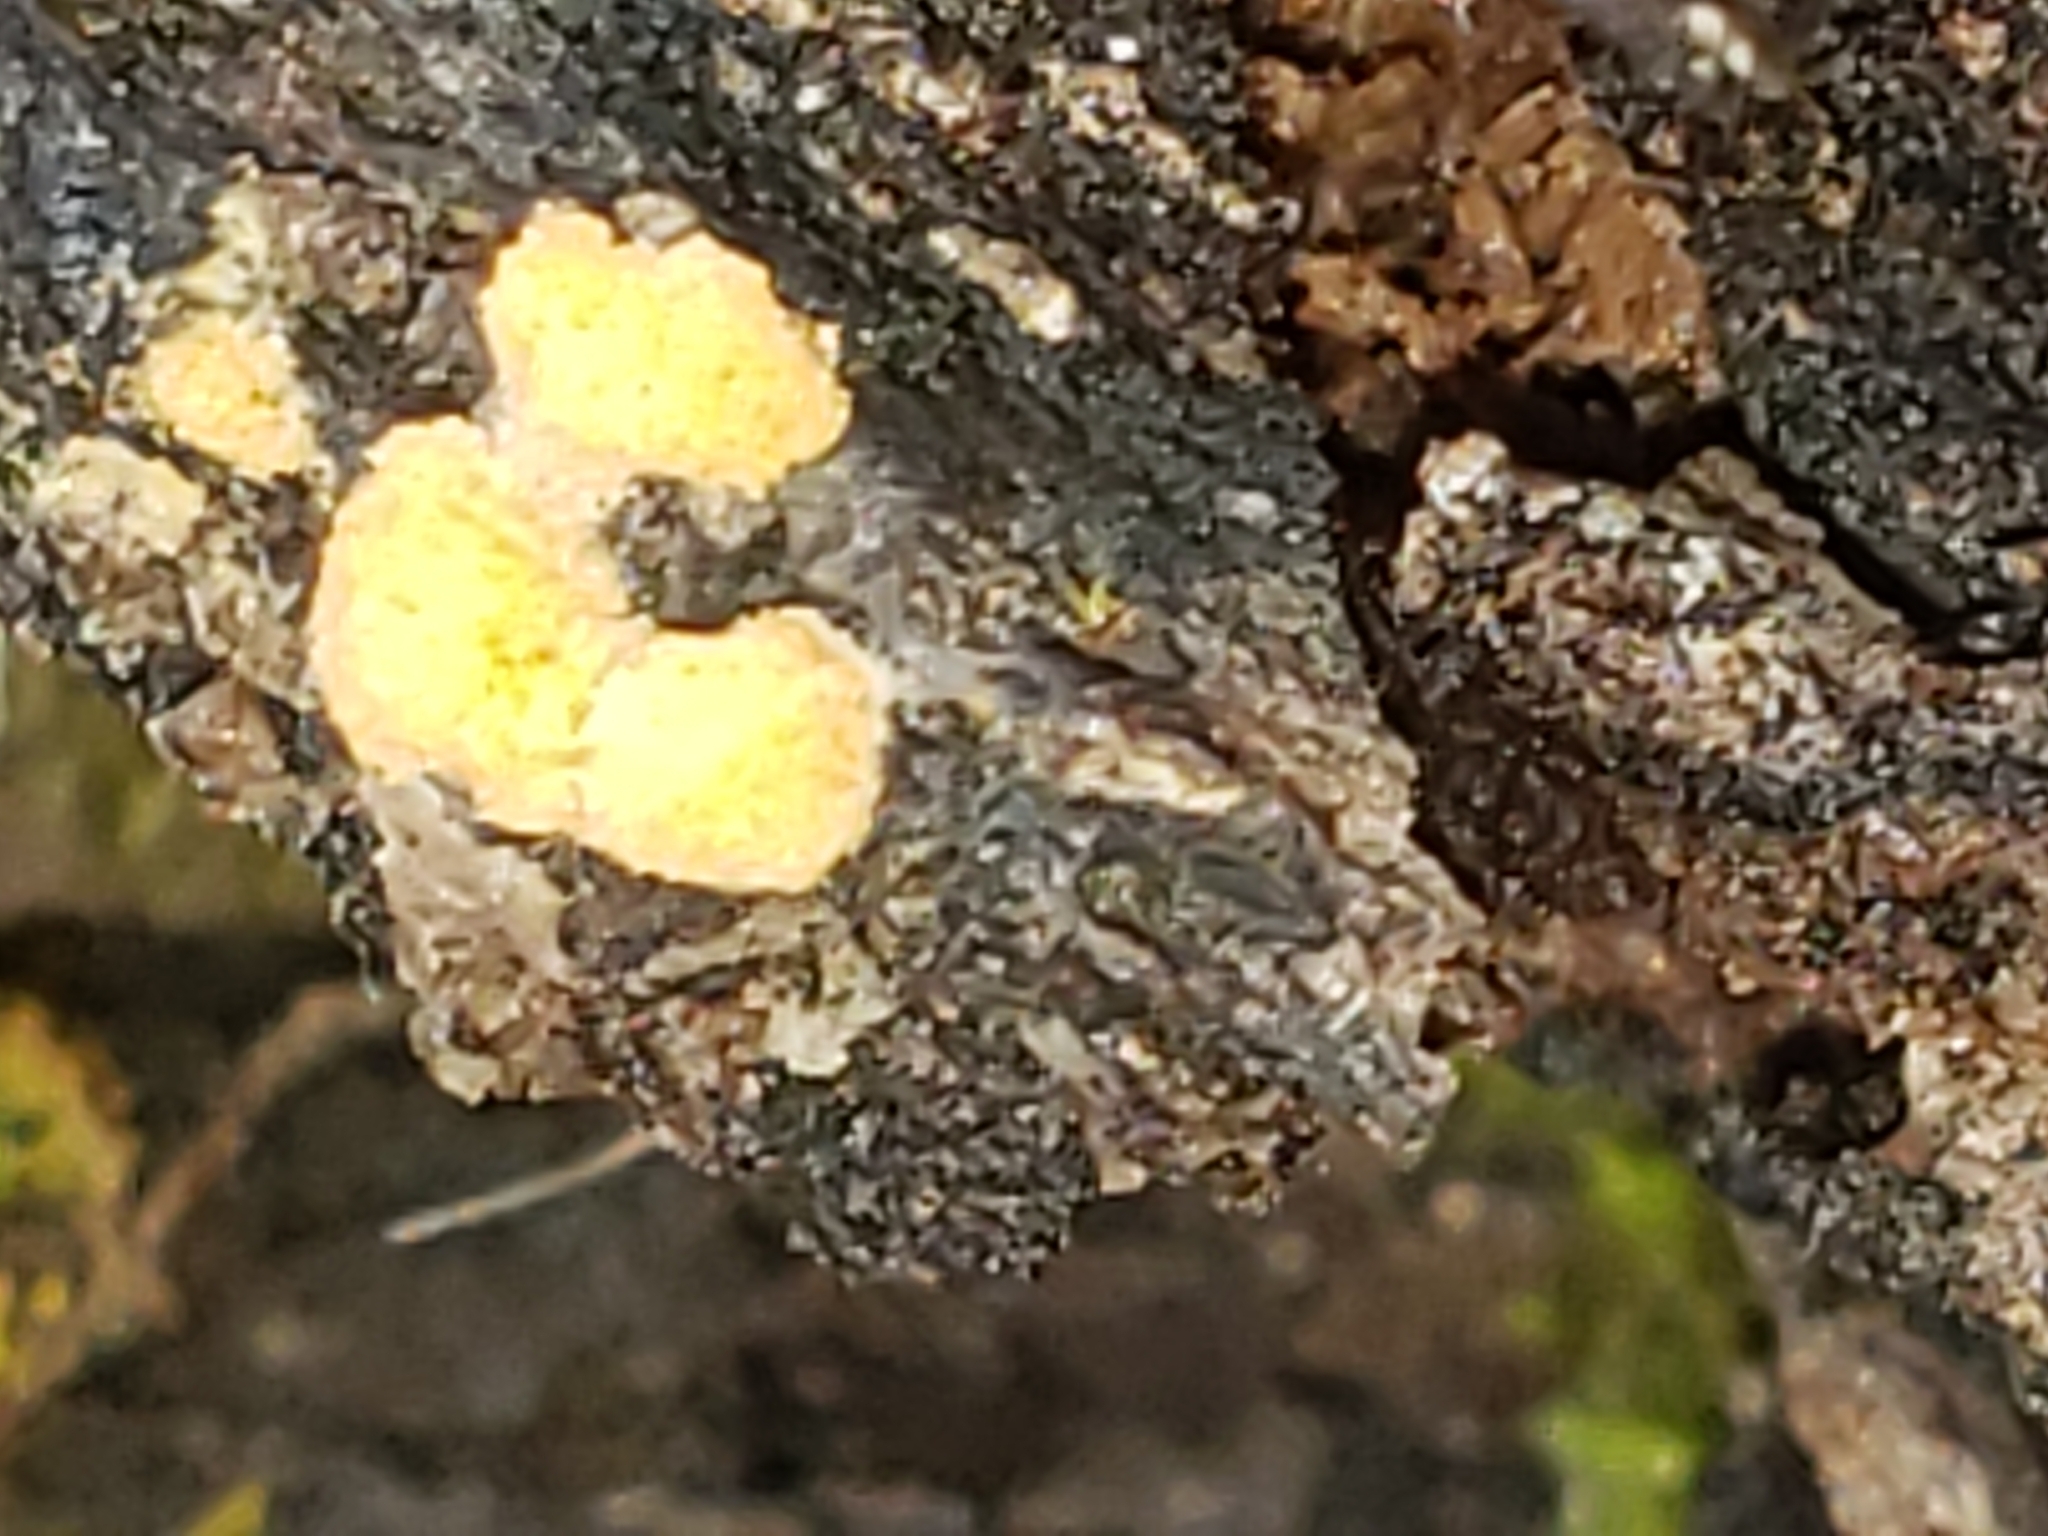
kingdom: Fungi
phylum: Ascomycota
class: Pezizomycetes
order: Pezizales
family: Pyronemataceae
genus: Sphaerosporium
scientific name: Sphaerosporium lignatile
